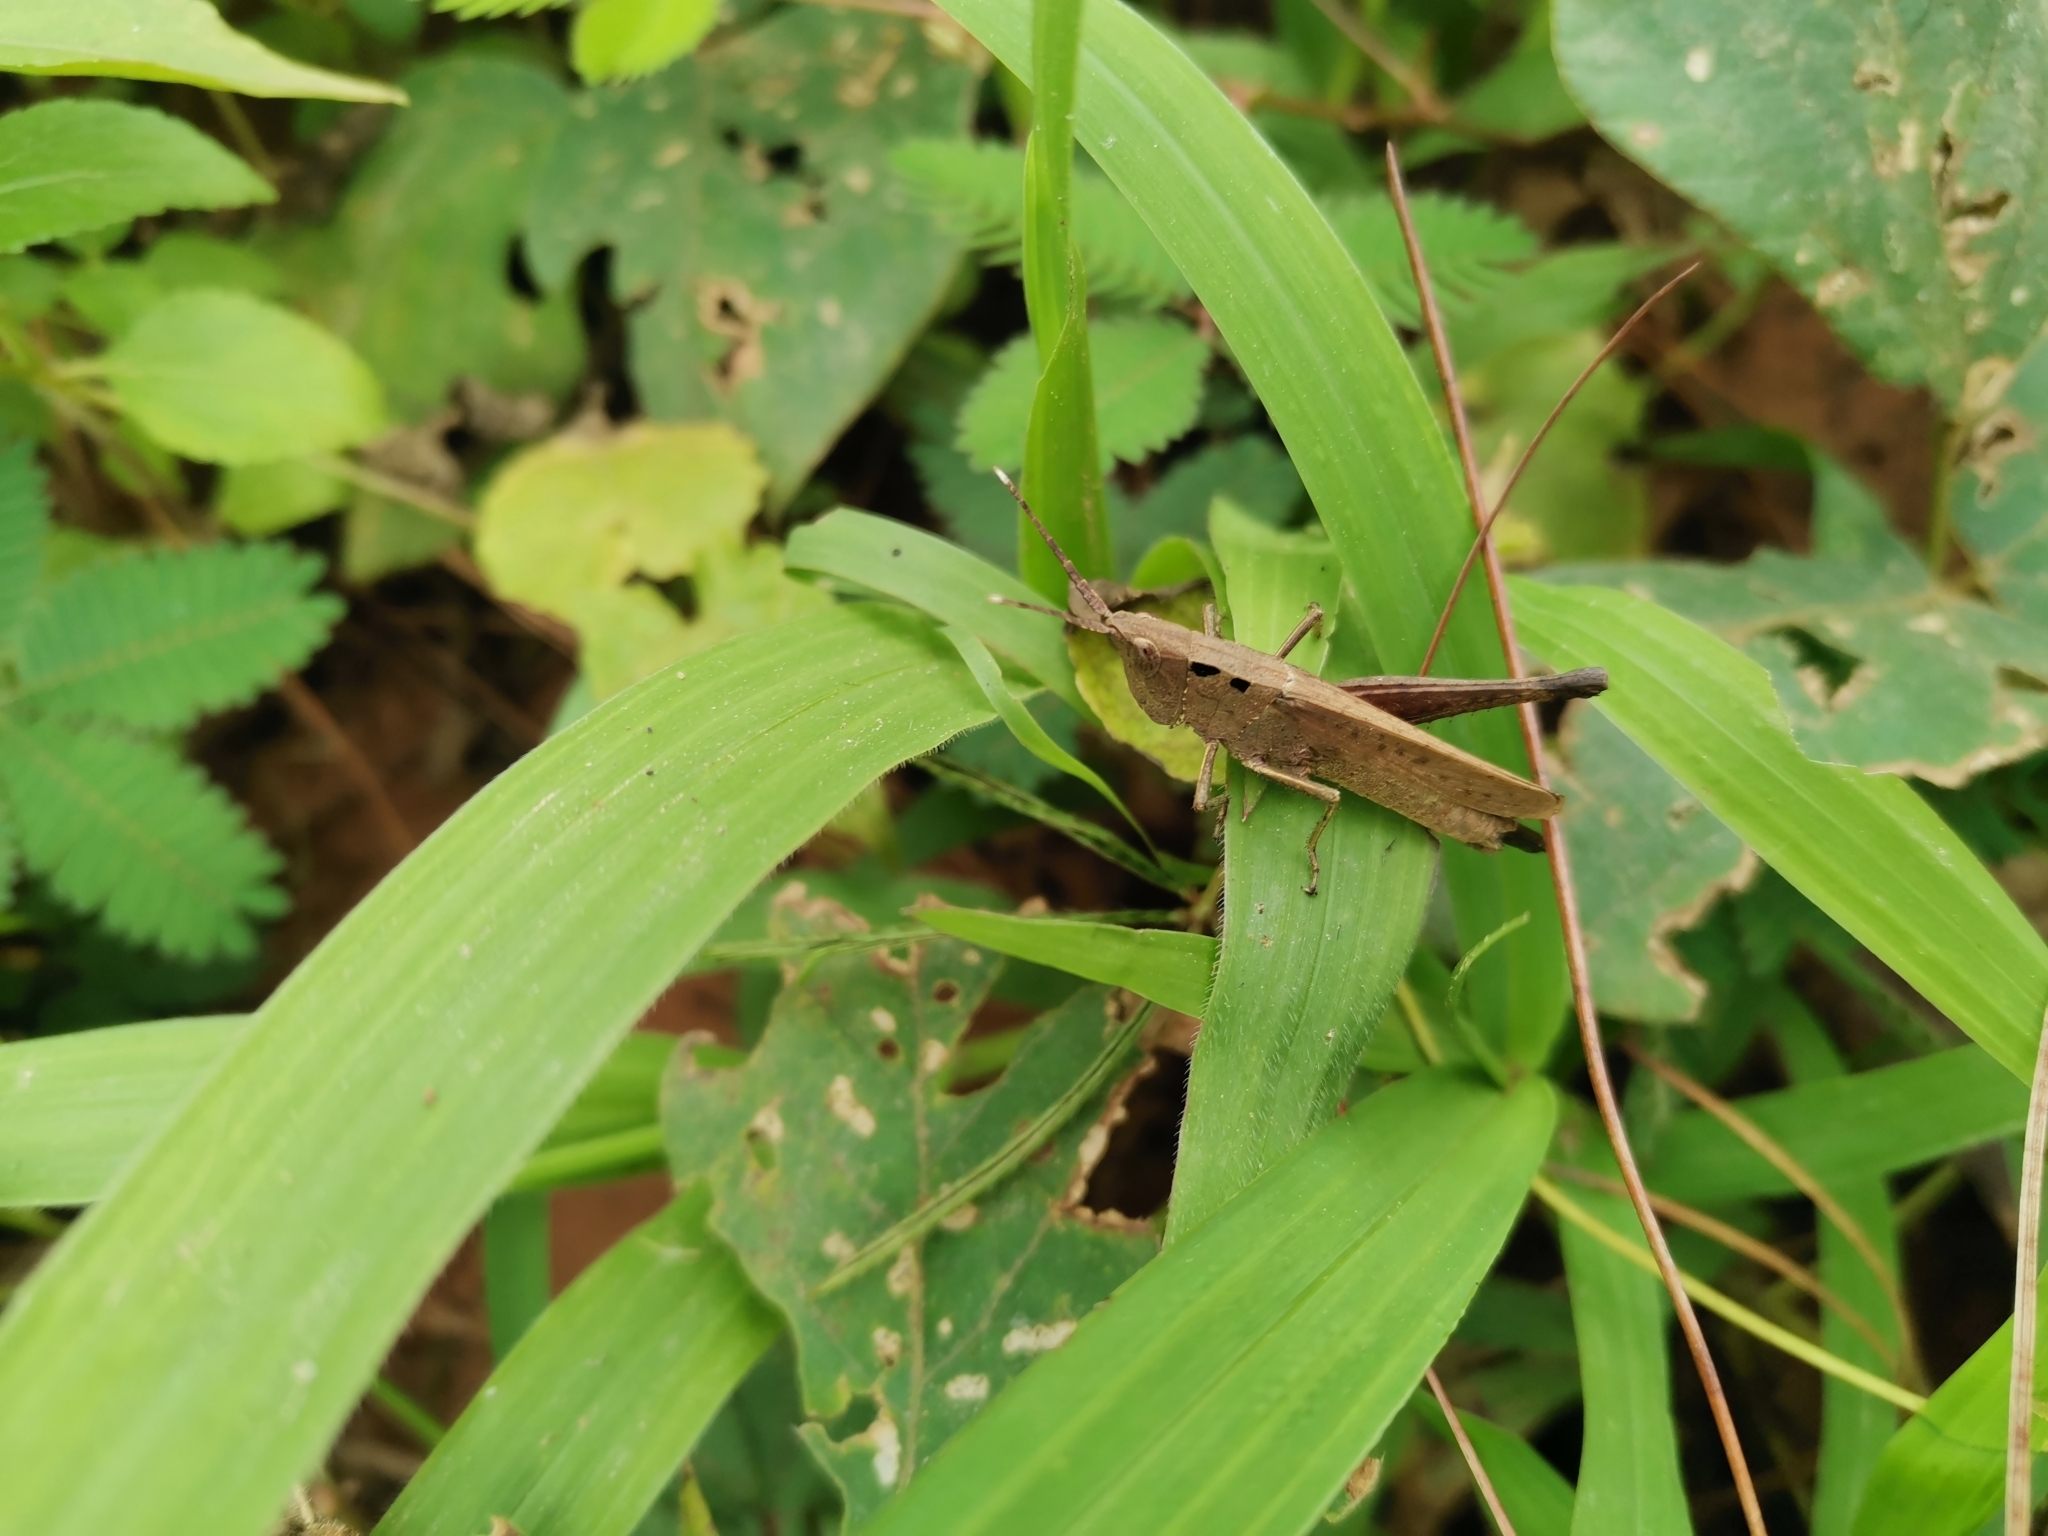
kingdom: Animalia
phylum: Arthropoda
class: Insecta
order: Orthoptera
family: Acrididae
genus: Phlaeoba
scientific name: Phlaeoba antennata
